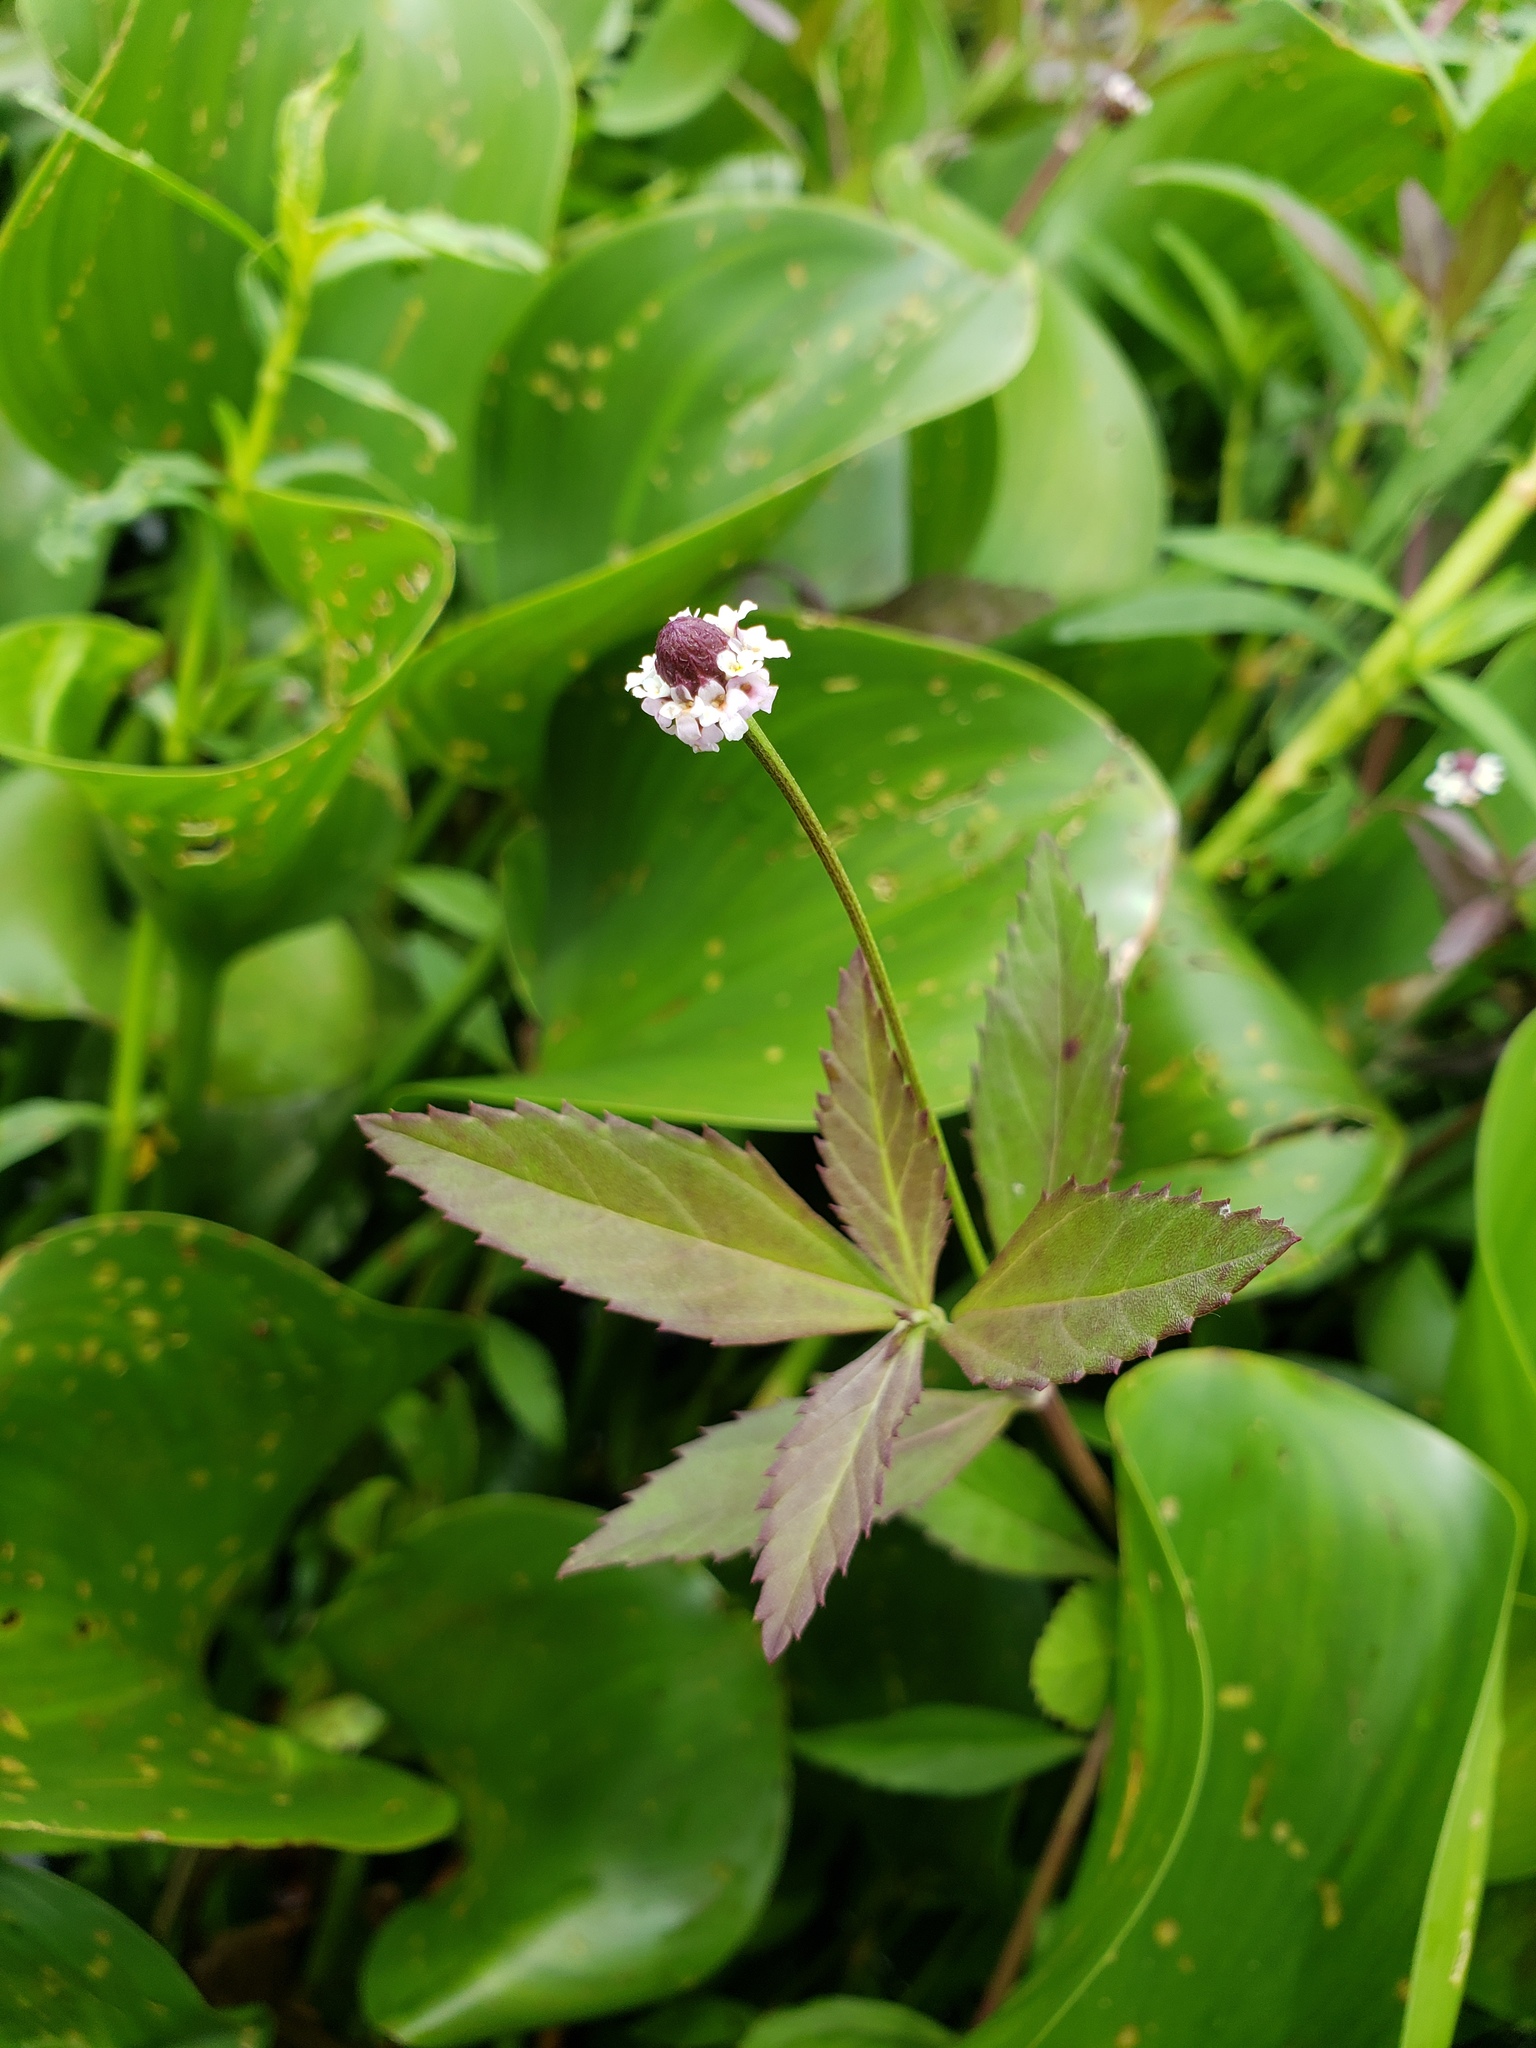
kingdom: Plantae
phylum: Tracheophyta
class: Magnoliopsida
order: Lamiales
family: Verbenaceae
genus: Phyla
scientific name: Phyla lanceolata
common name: Northern fogfruit
